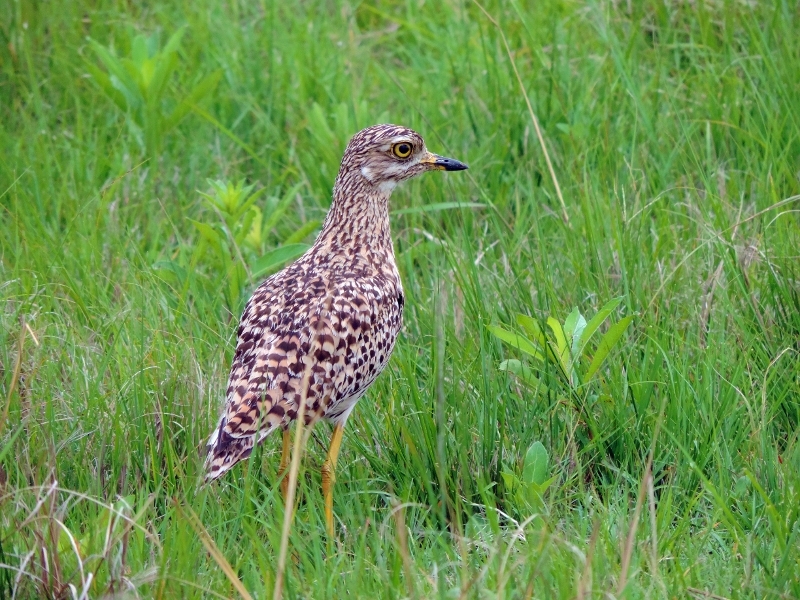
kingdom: Animalia
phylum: Chordata
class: Aves
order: Charadriiformes
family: Burhinidae
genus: Burhinus
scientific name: Burhinus capensis
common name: Spotted thick-knee
